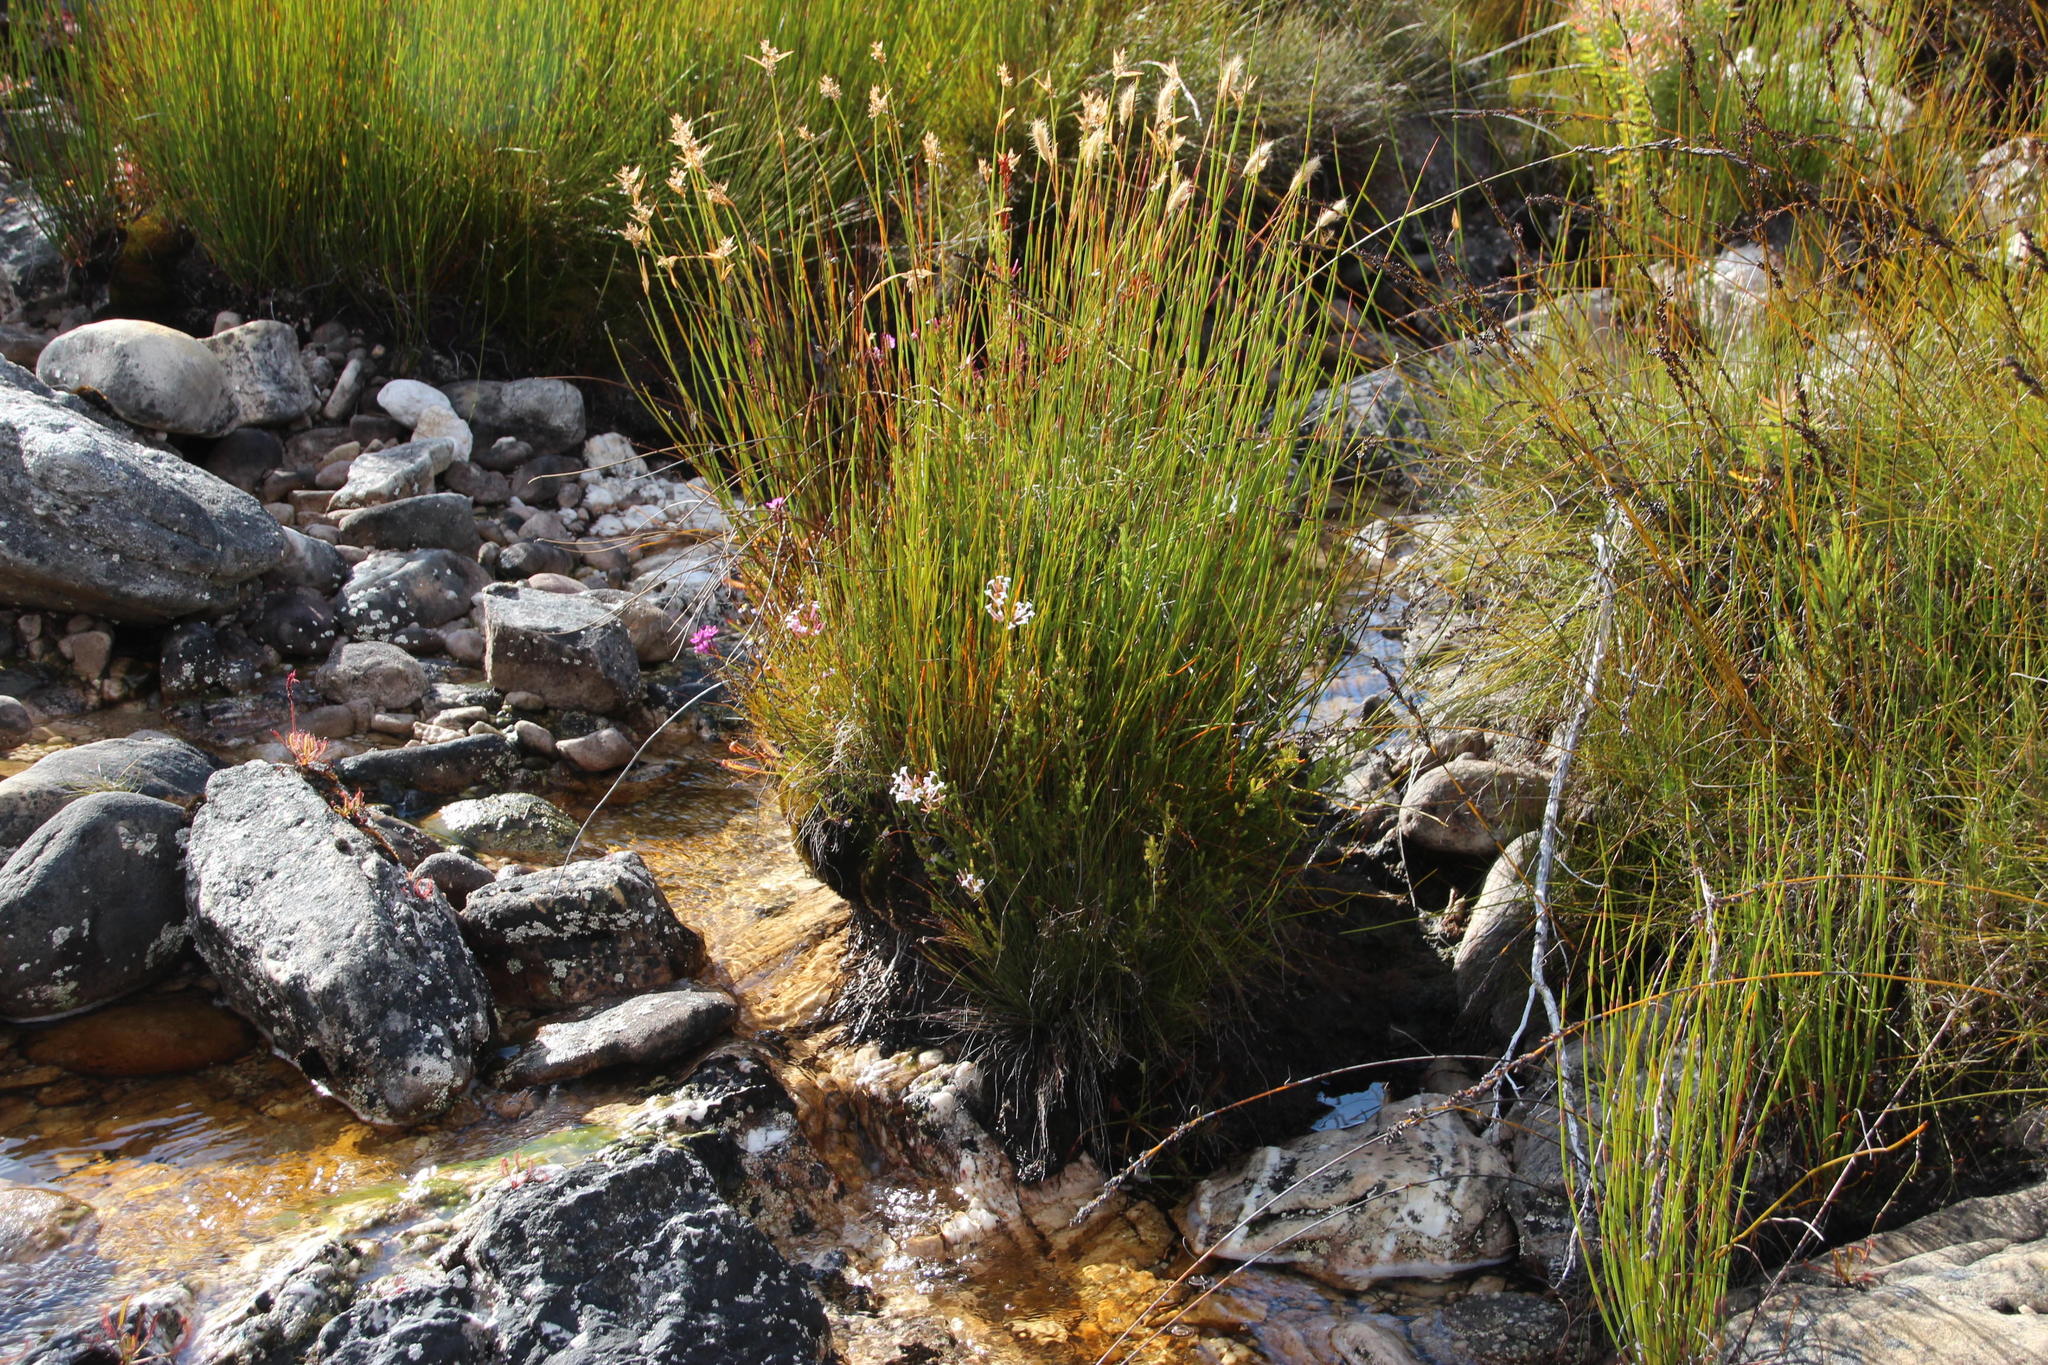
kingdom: Plantae
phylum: Tracheophyta
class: Magnoliopsida
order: Ericales
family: Ericaceae
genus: Erica
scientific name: Erica infundibuliformis
